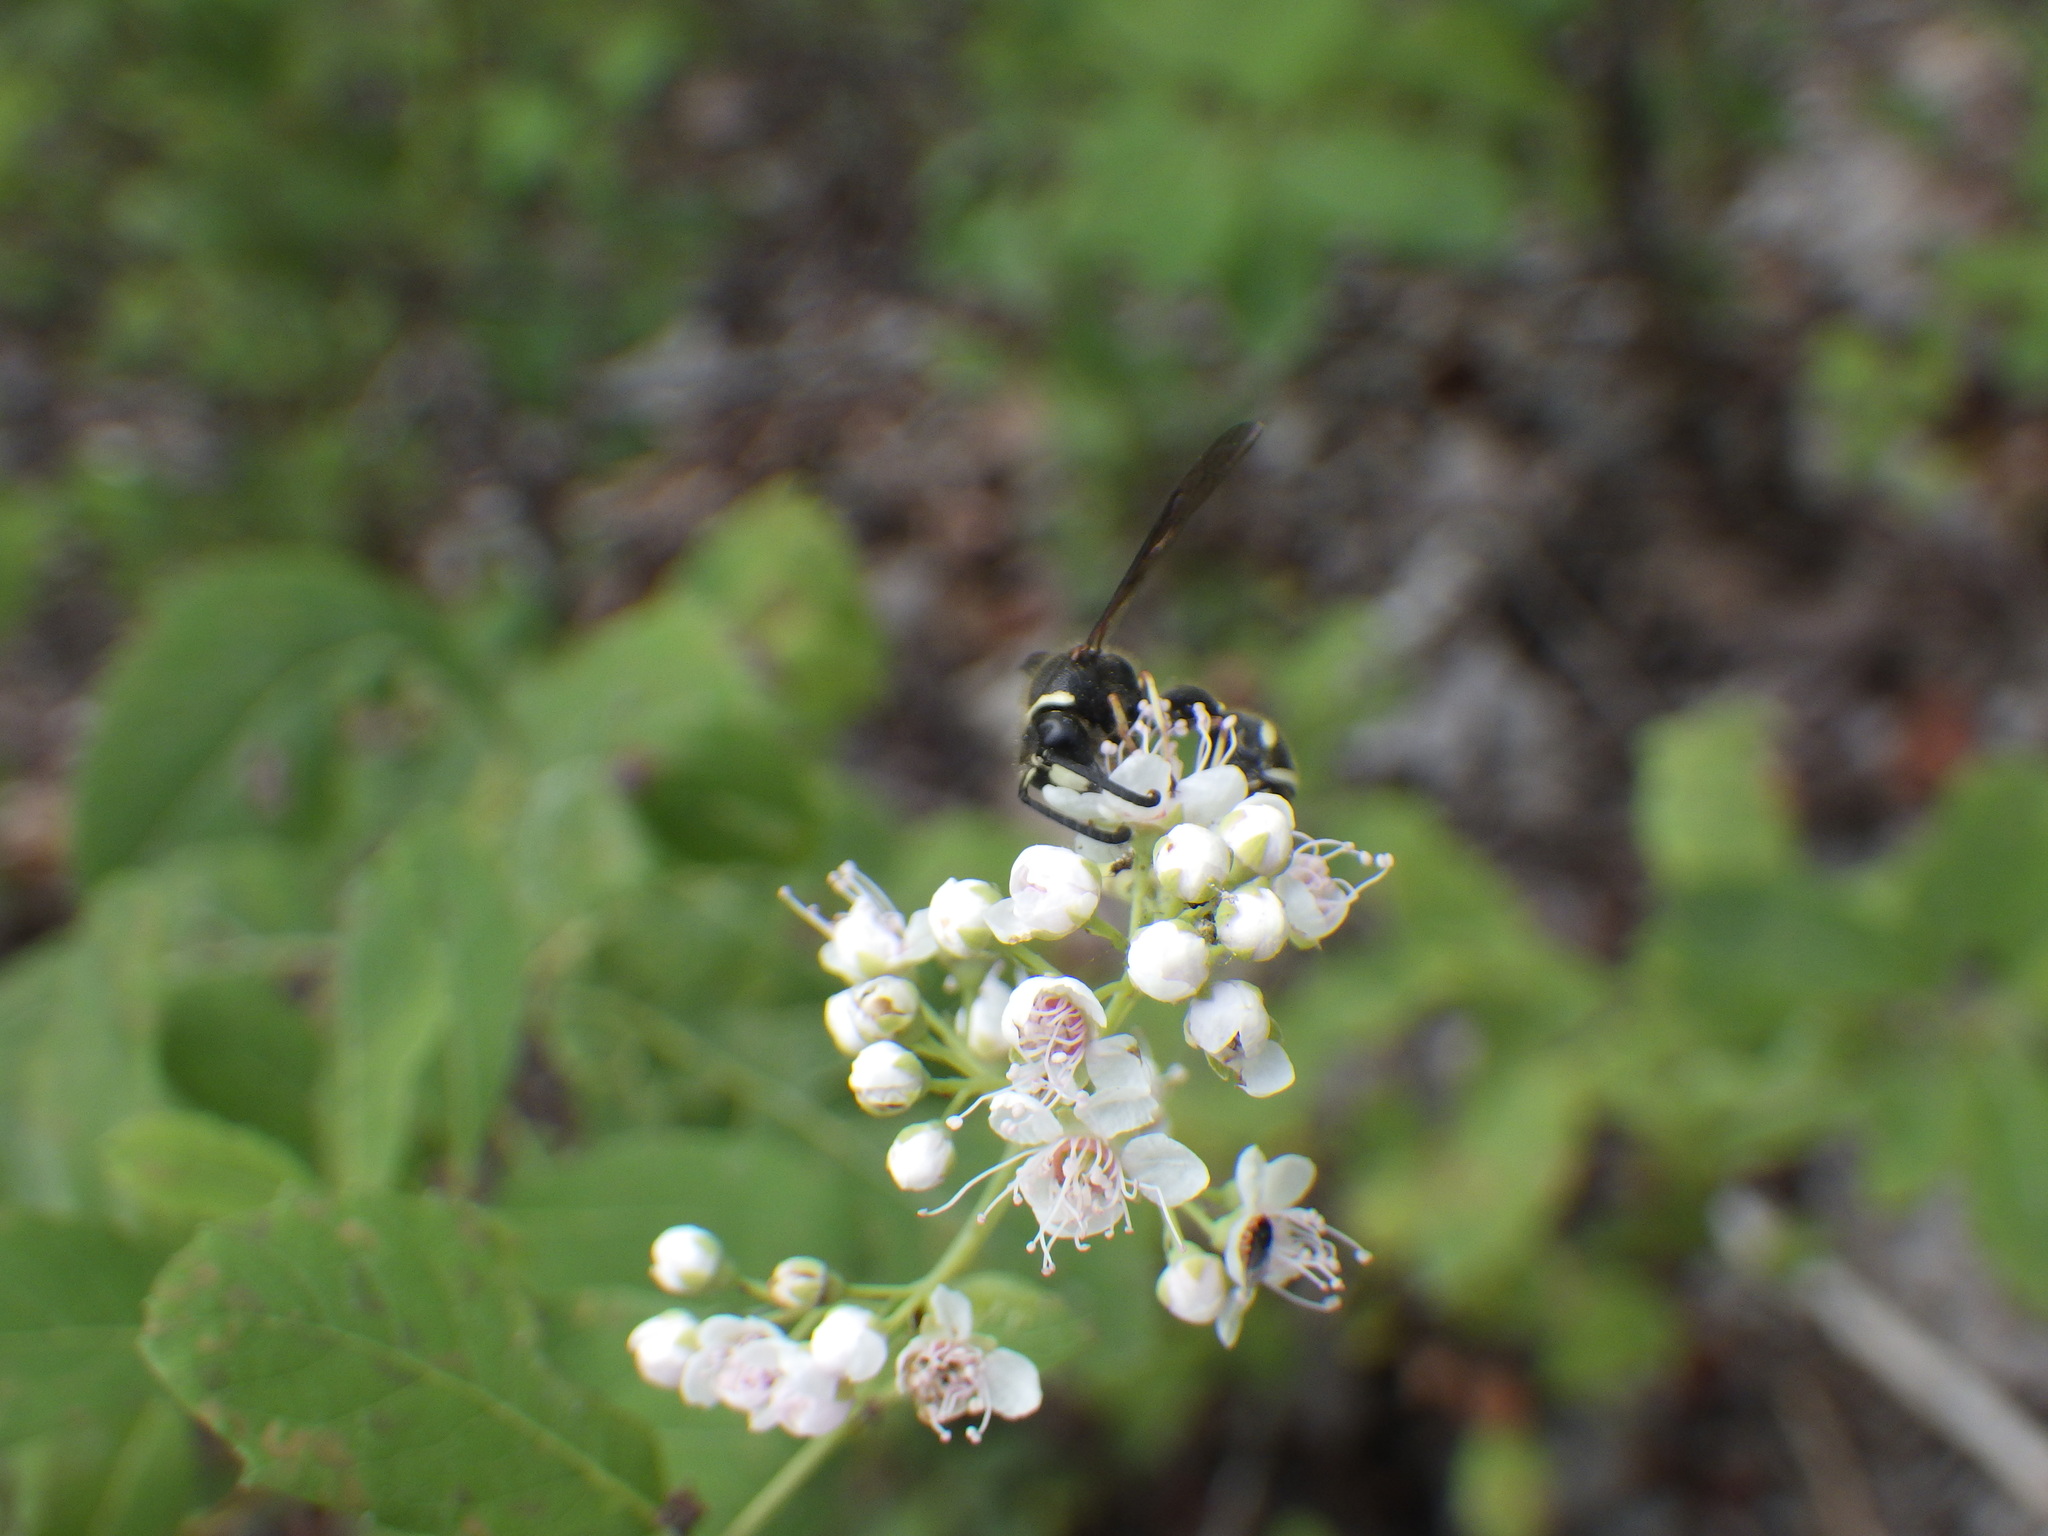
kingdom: Animalia
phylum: Arthropoda
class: Insecta
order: Hymenoptera
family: Vespidae
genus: Eumenes
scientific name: Eumenes crucifera
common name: Cross potter wasp
